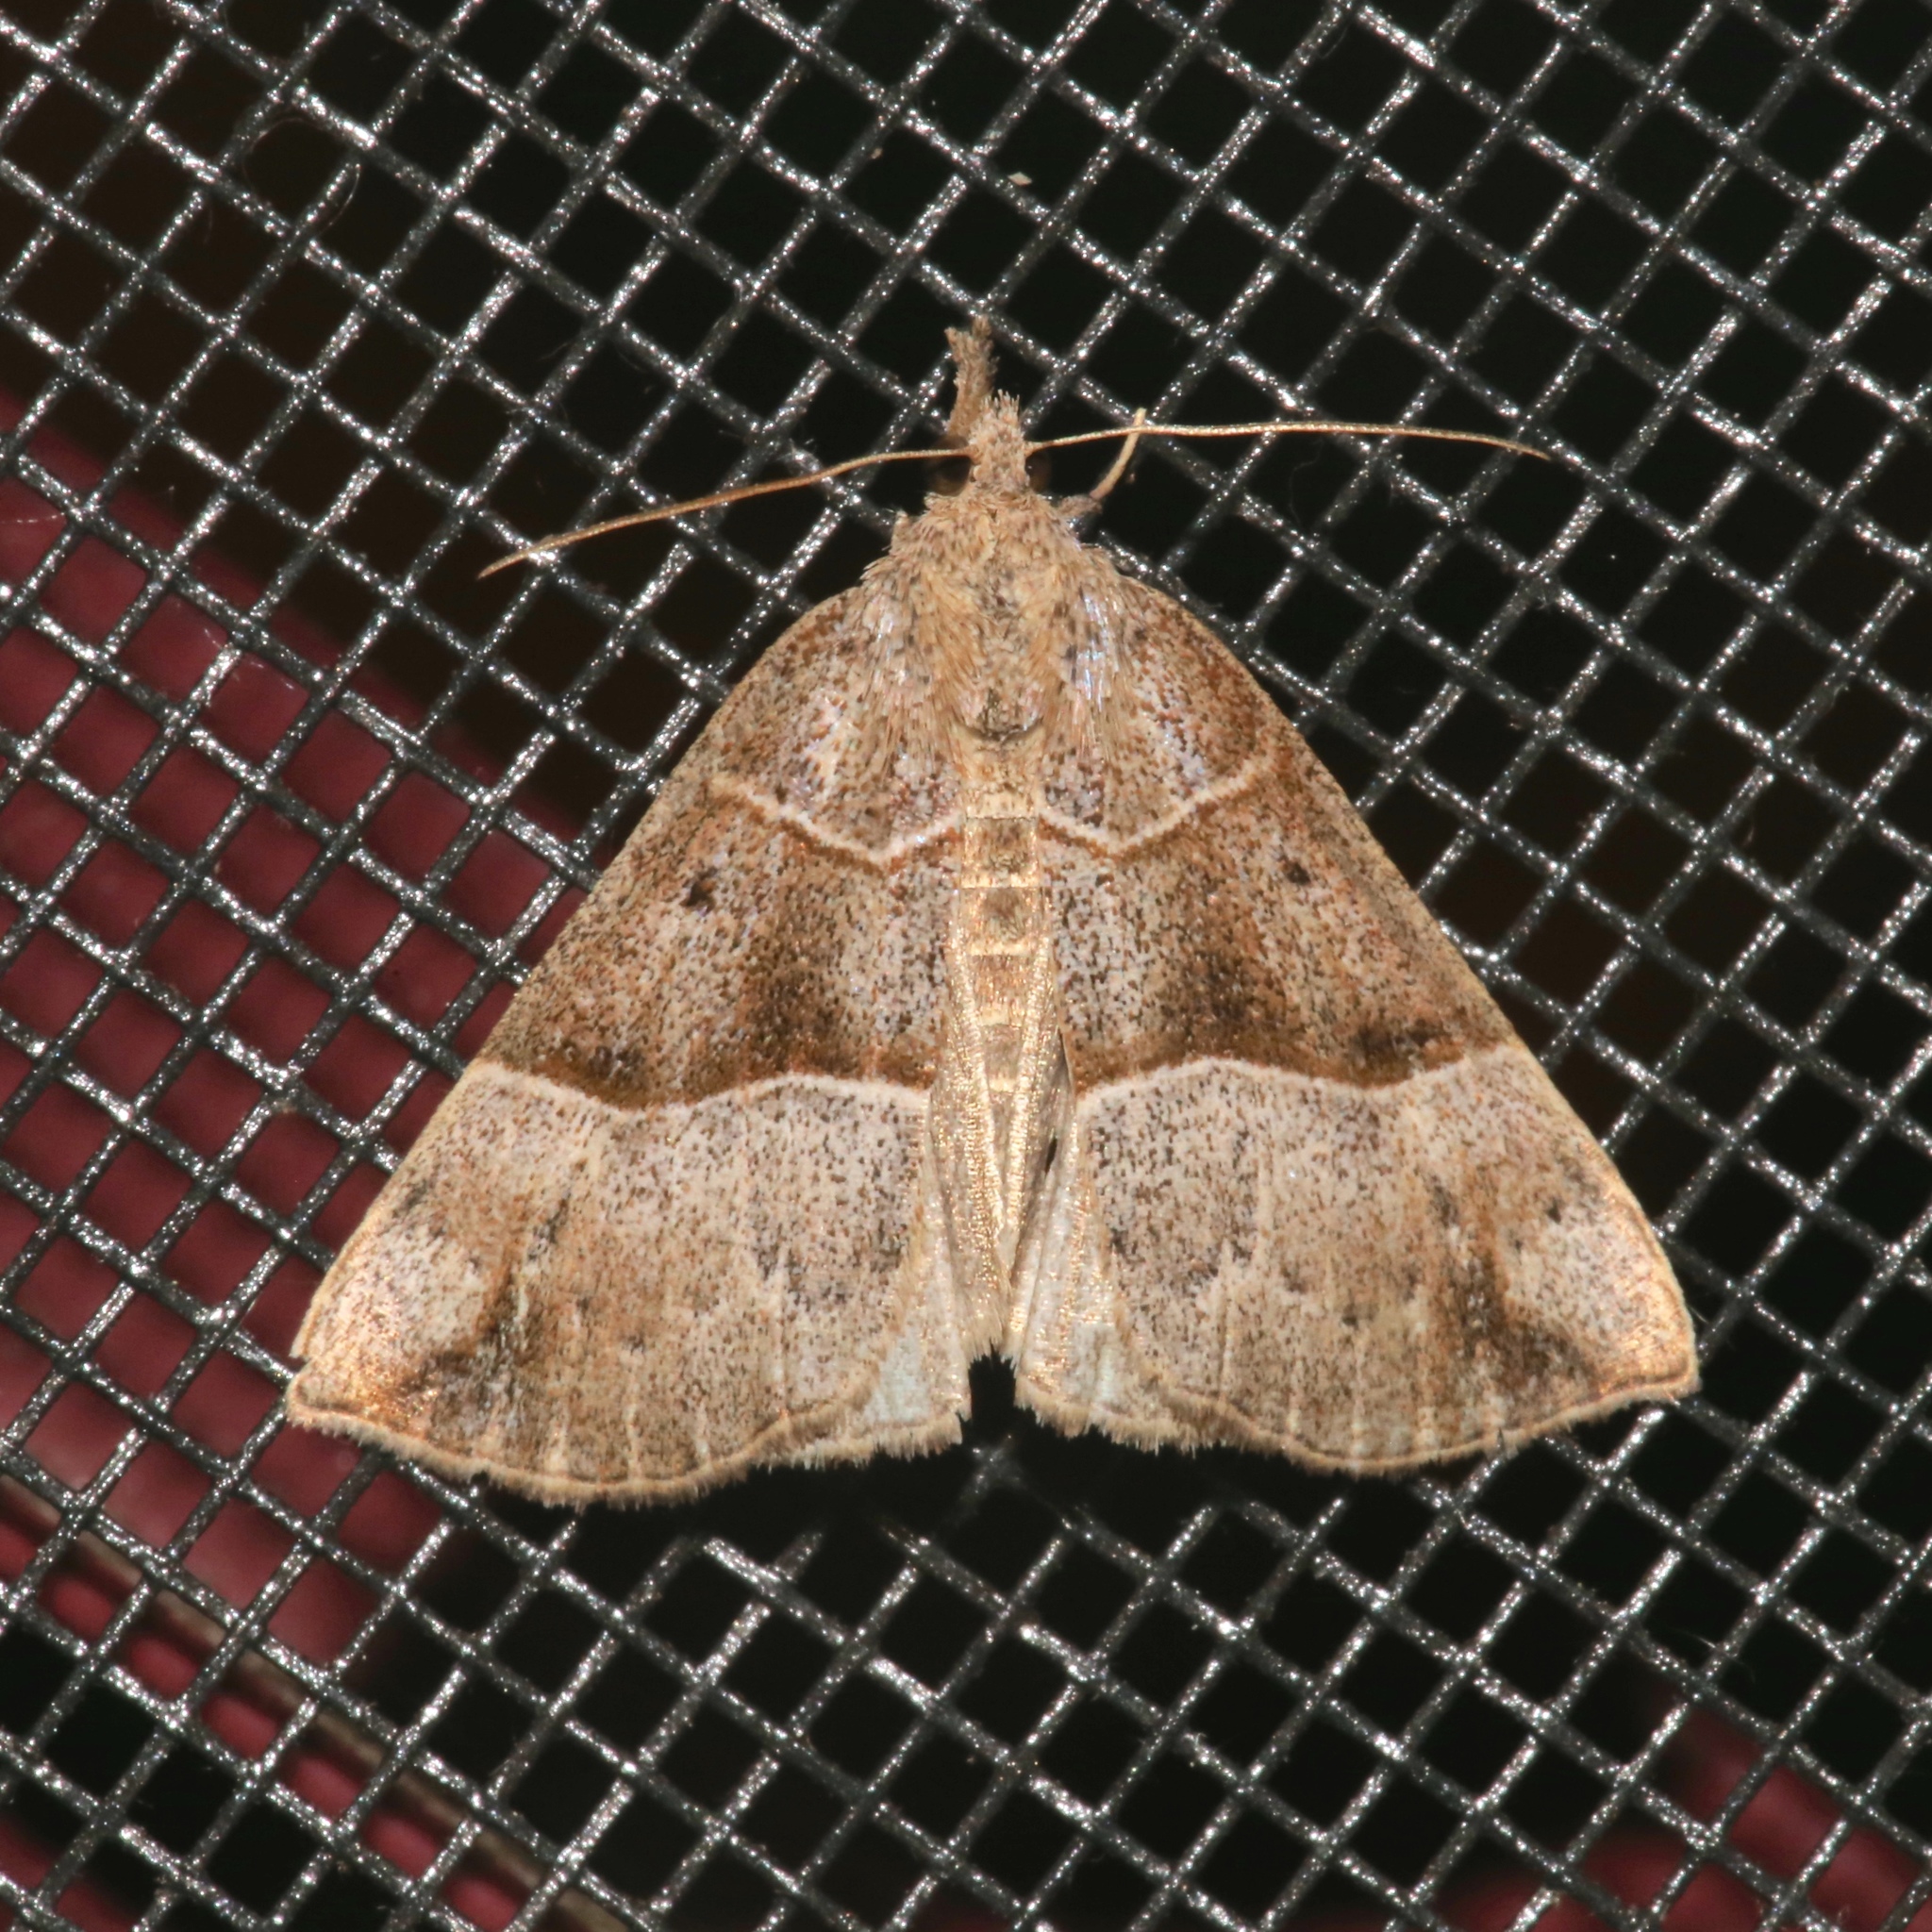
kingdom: Animalia
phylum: Arthropoda
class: Insecta
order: Lepidoptera
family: Erebidae
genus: Hypena
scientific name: Hypena deceptalis
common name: Deceptive snout
